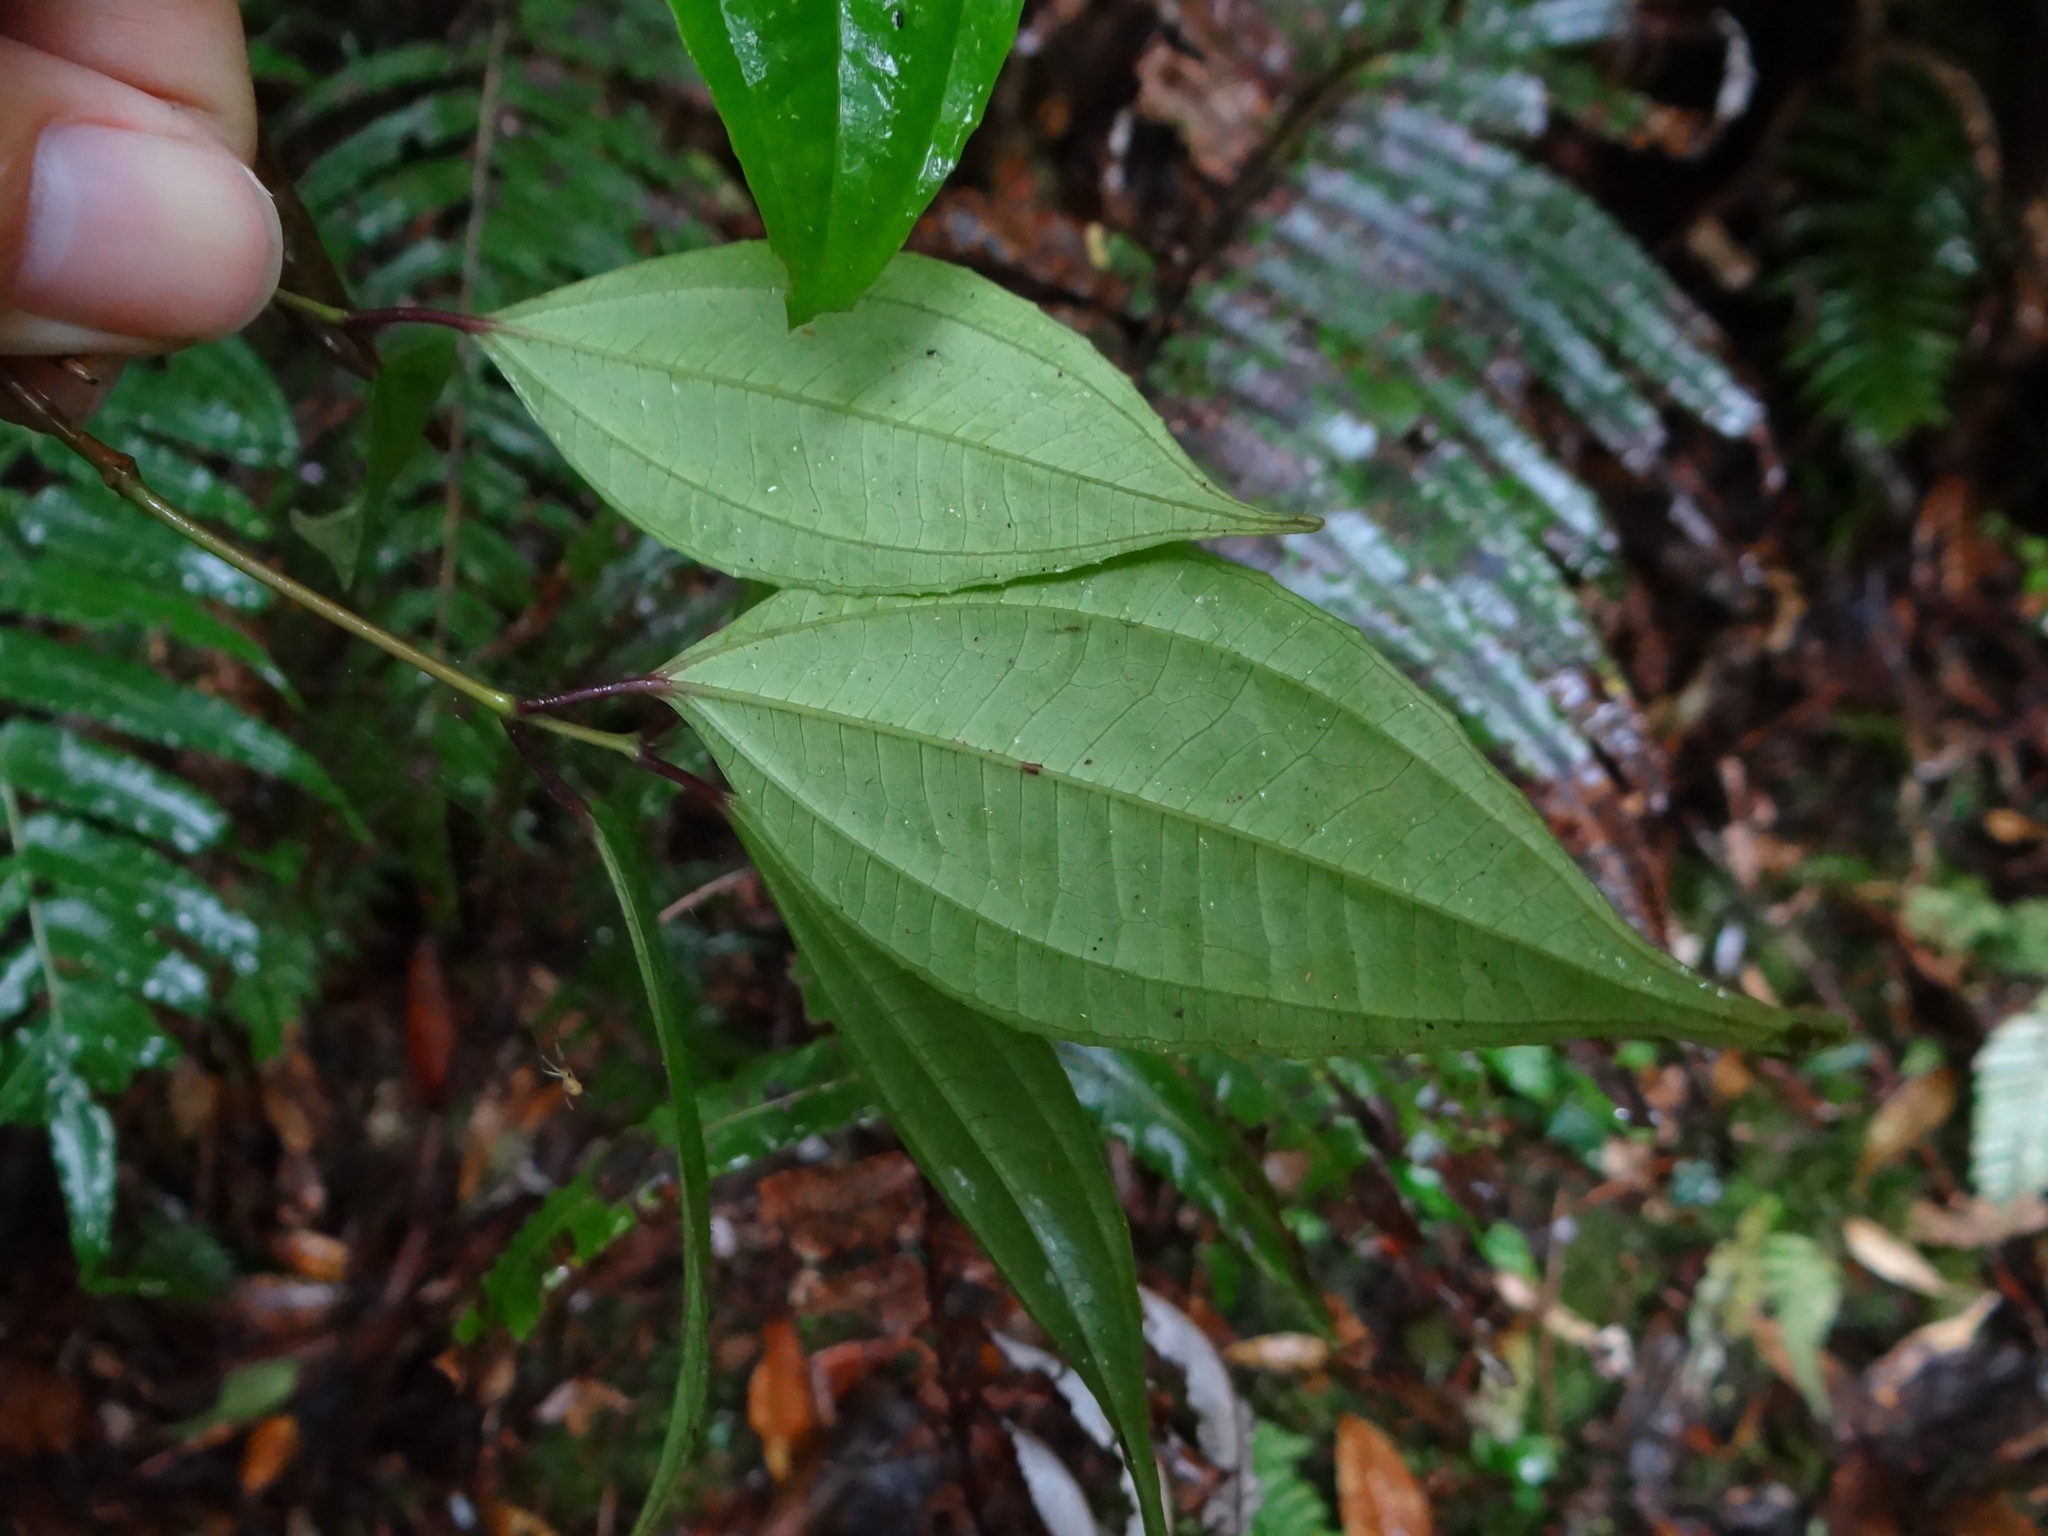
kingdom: Plantae
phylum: Tracheophyta
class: Magnoliopsida
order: Myrtales
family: Melastomataceae
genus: Barthea
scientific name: Barthea barthei
